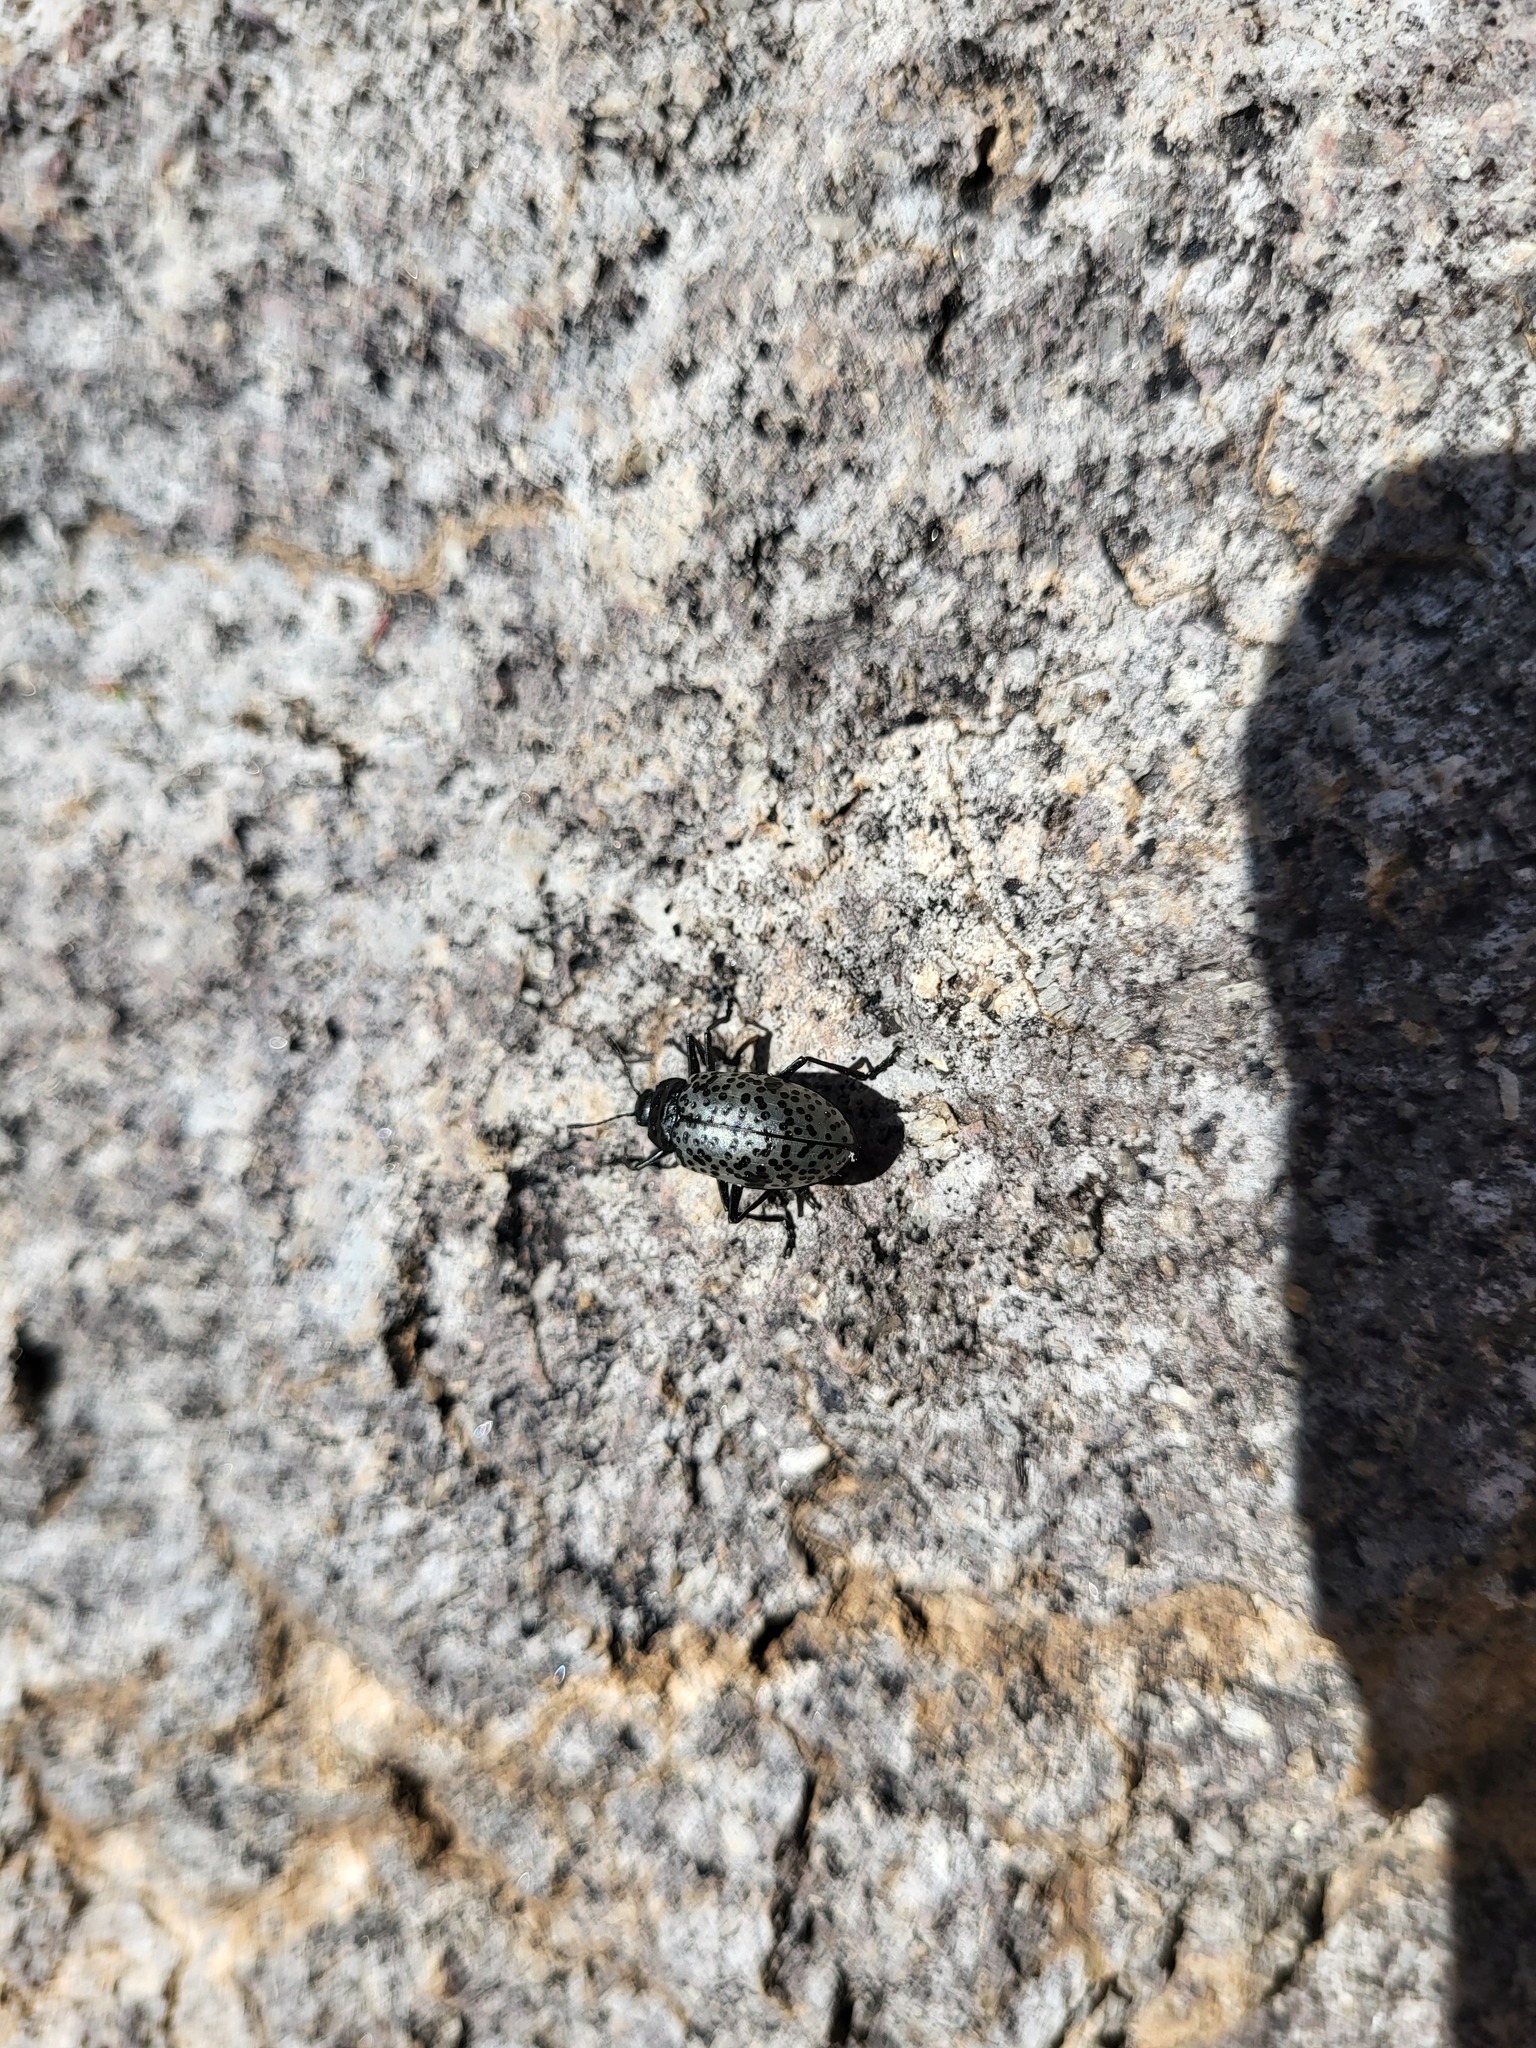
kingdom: Animalia
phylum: Arthropoda
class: Insecta
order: Coleoptera
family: Erotylidae
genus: Gibbifer
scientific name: Gibbifer californicus
